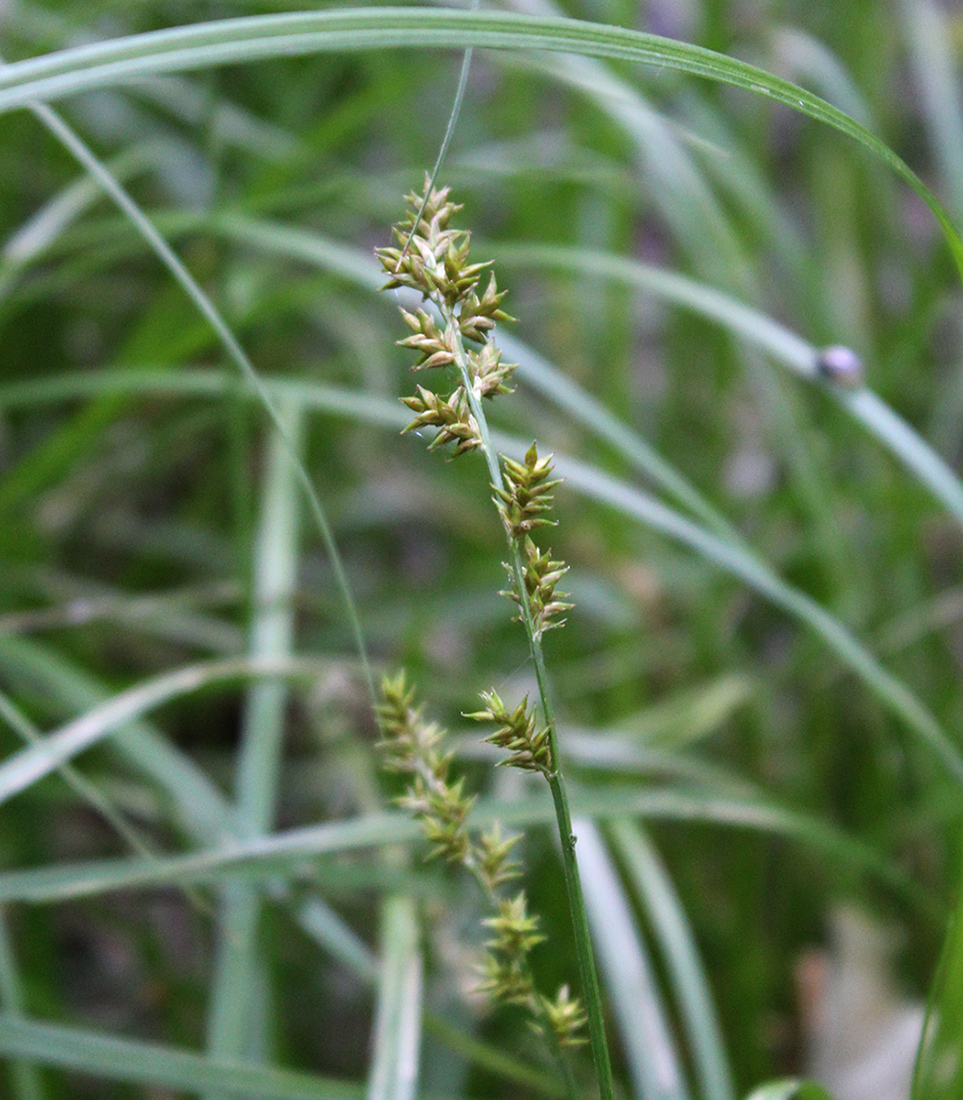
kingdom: Plantae
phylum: Tracheophyta
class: Liliopsida
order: Poales
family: Cyperaceae
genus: Carex
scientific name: Carex elongata
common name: Elongated sedge
